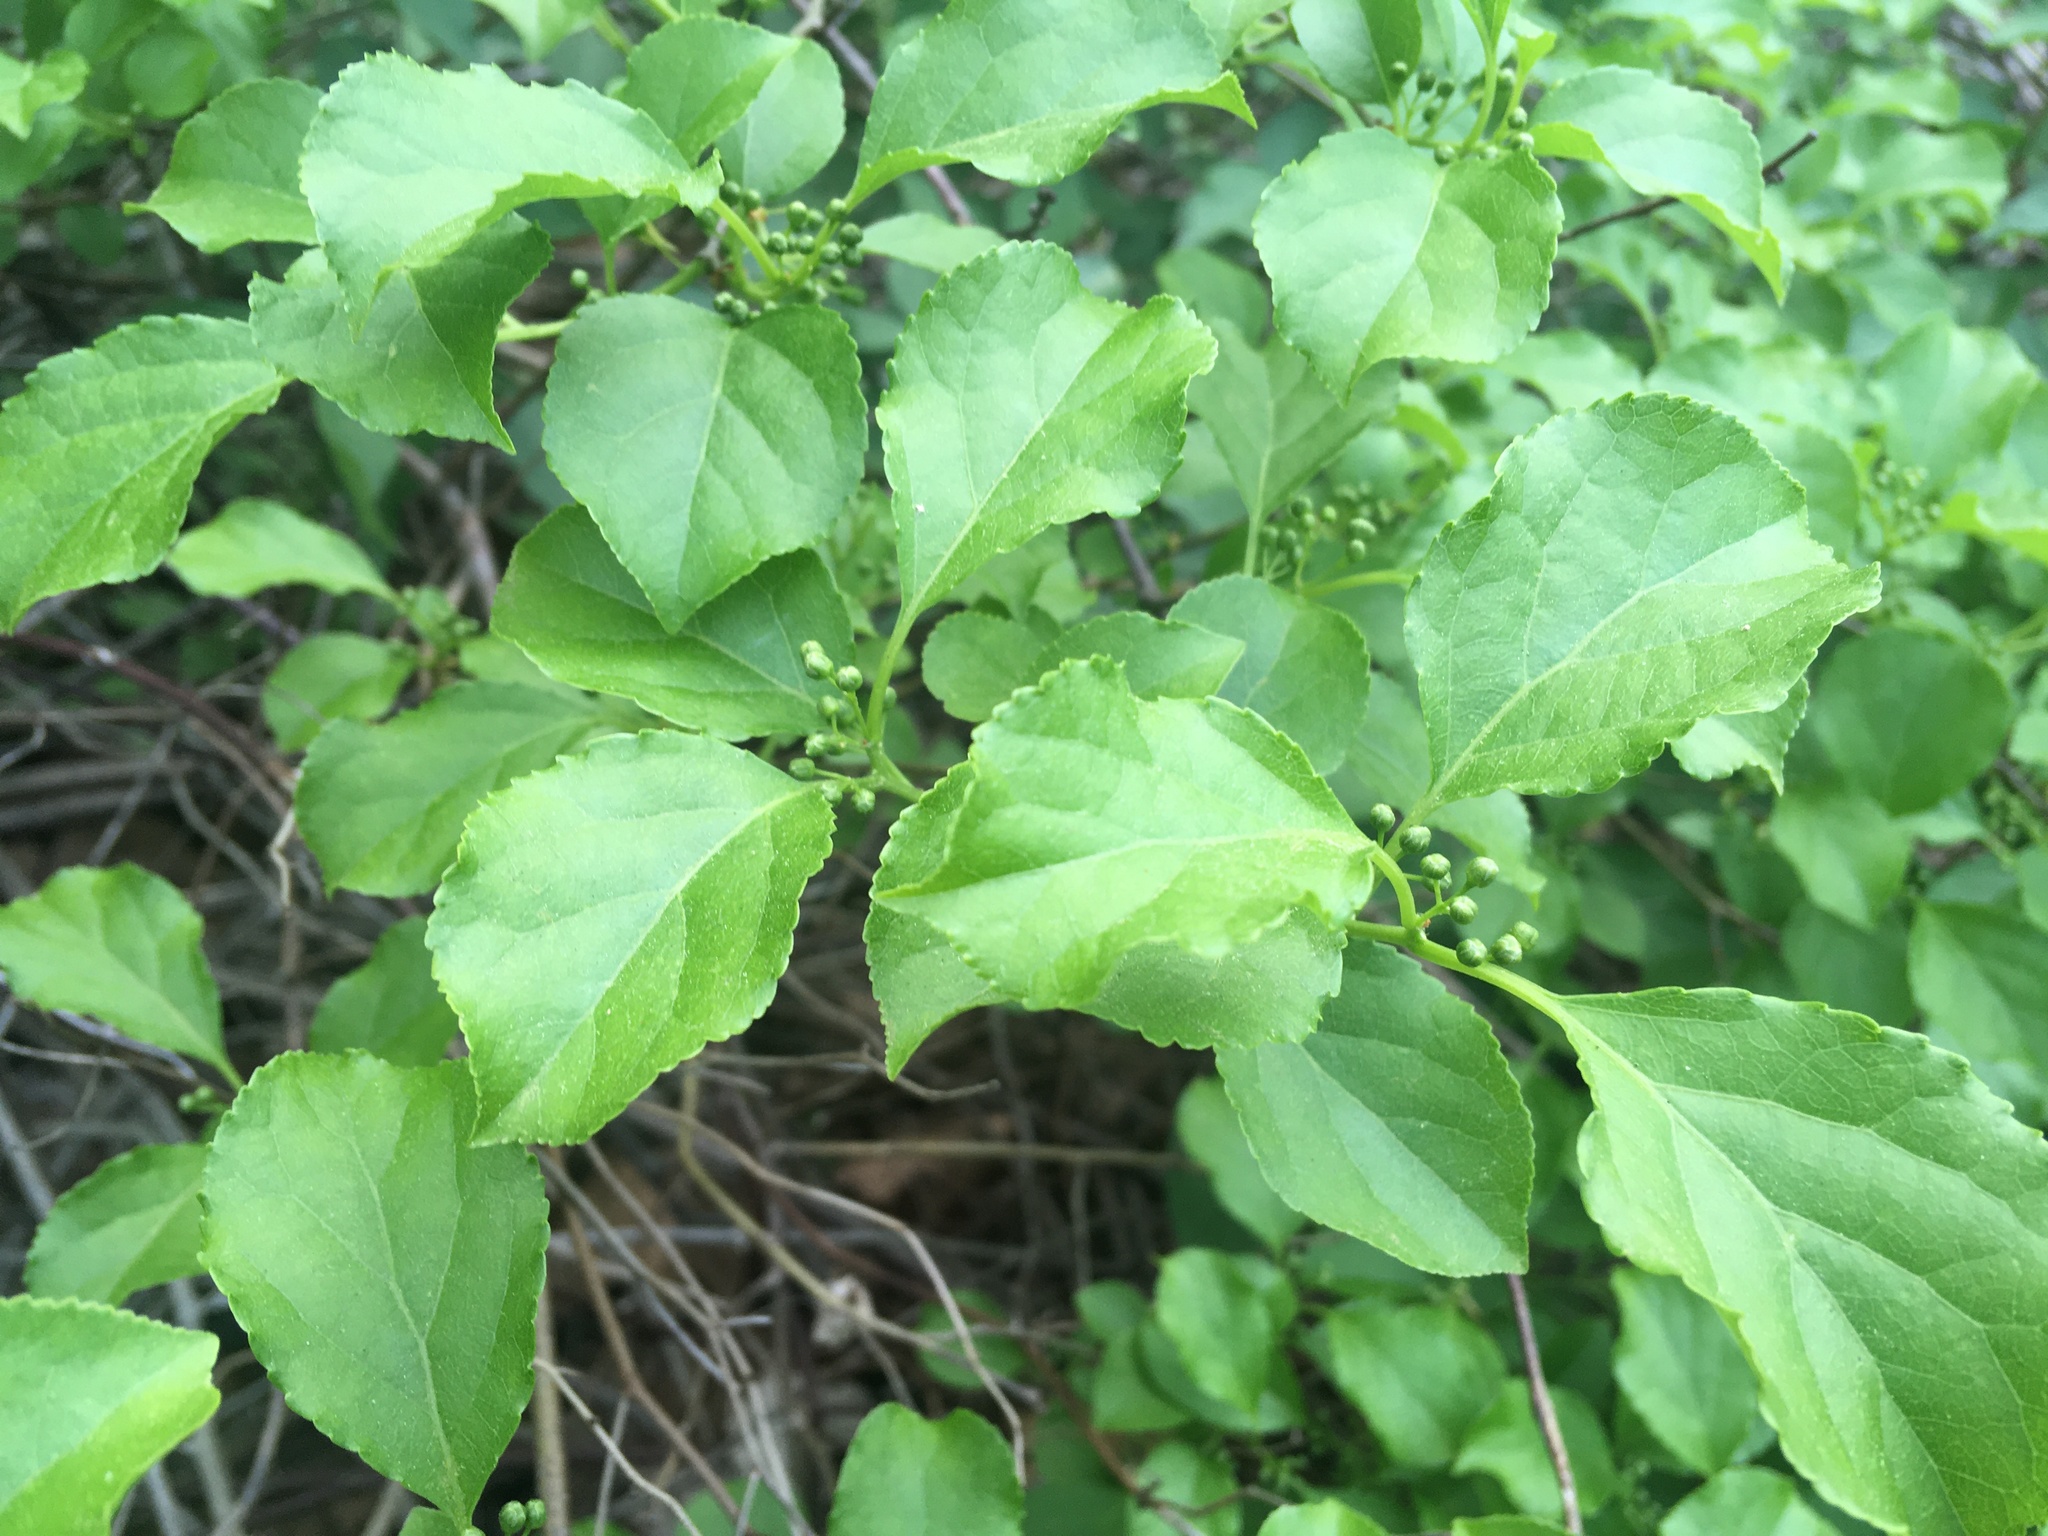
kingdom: Plantae
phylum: Tracheophyta
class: Magnoliopsida
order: Celastrales
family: Celastraceae
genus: Celastrus
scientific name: Celastrus orbiculatus
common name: Oriental bittersweet
